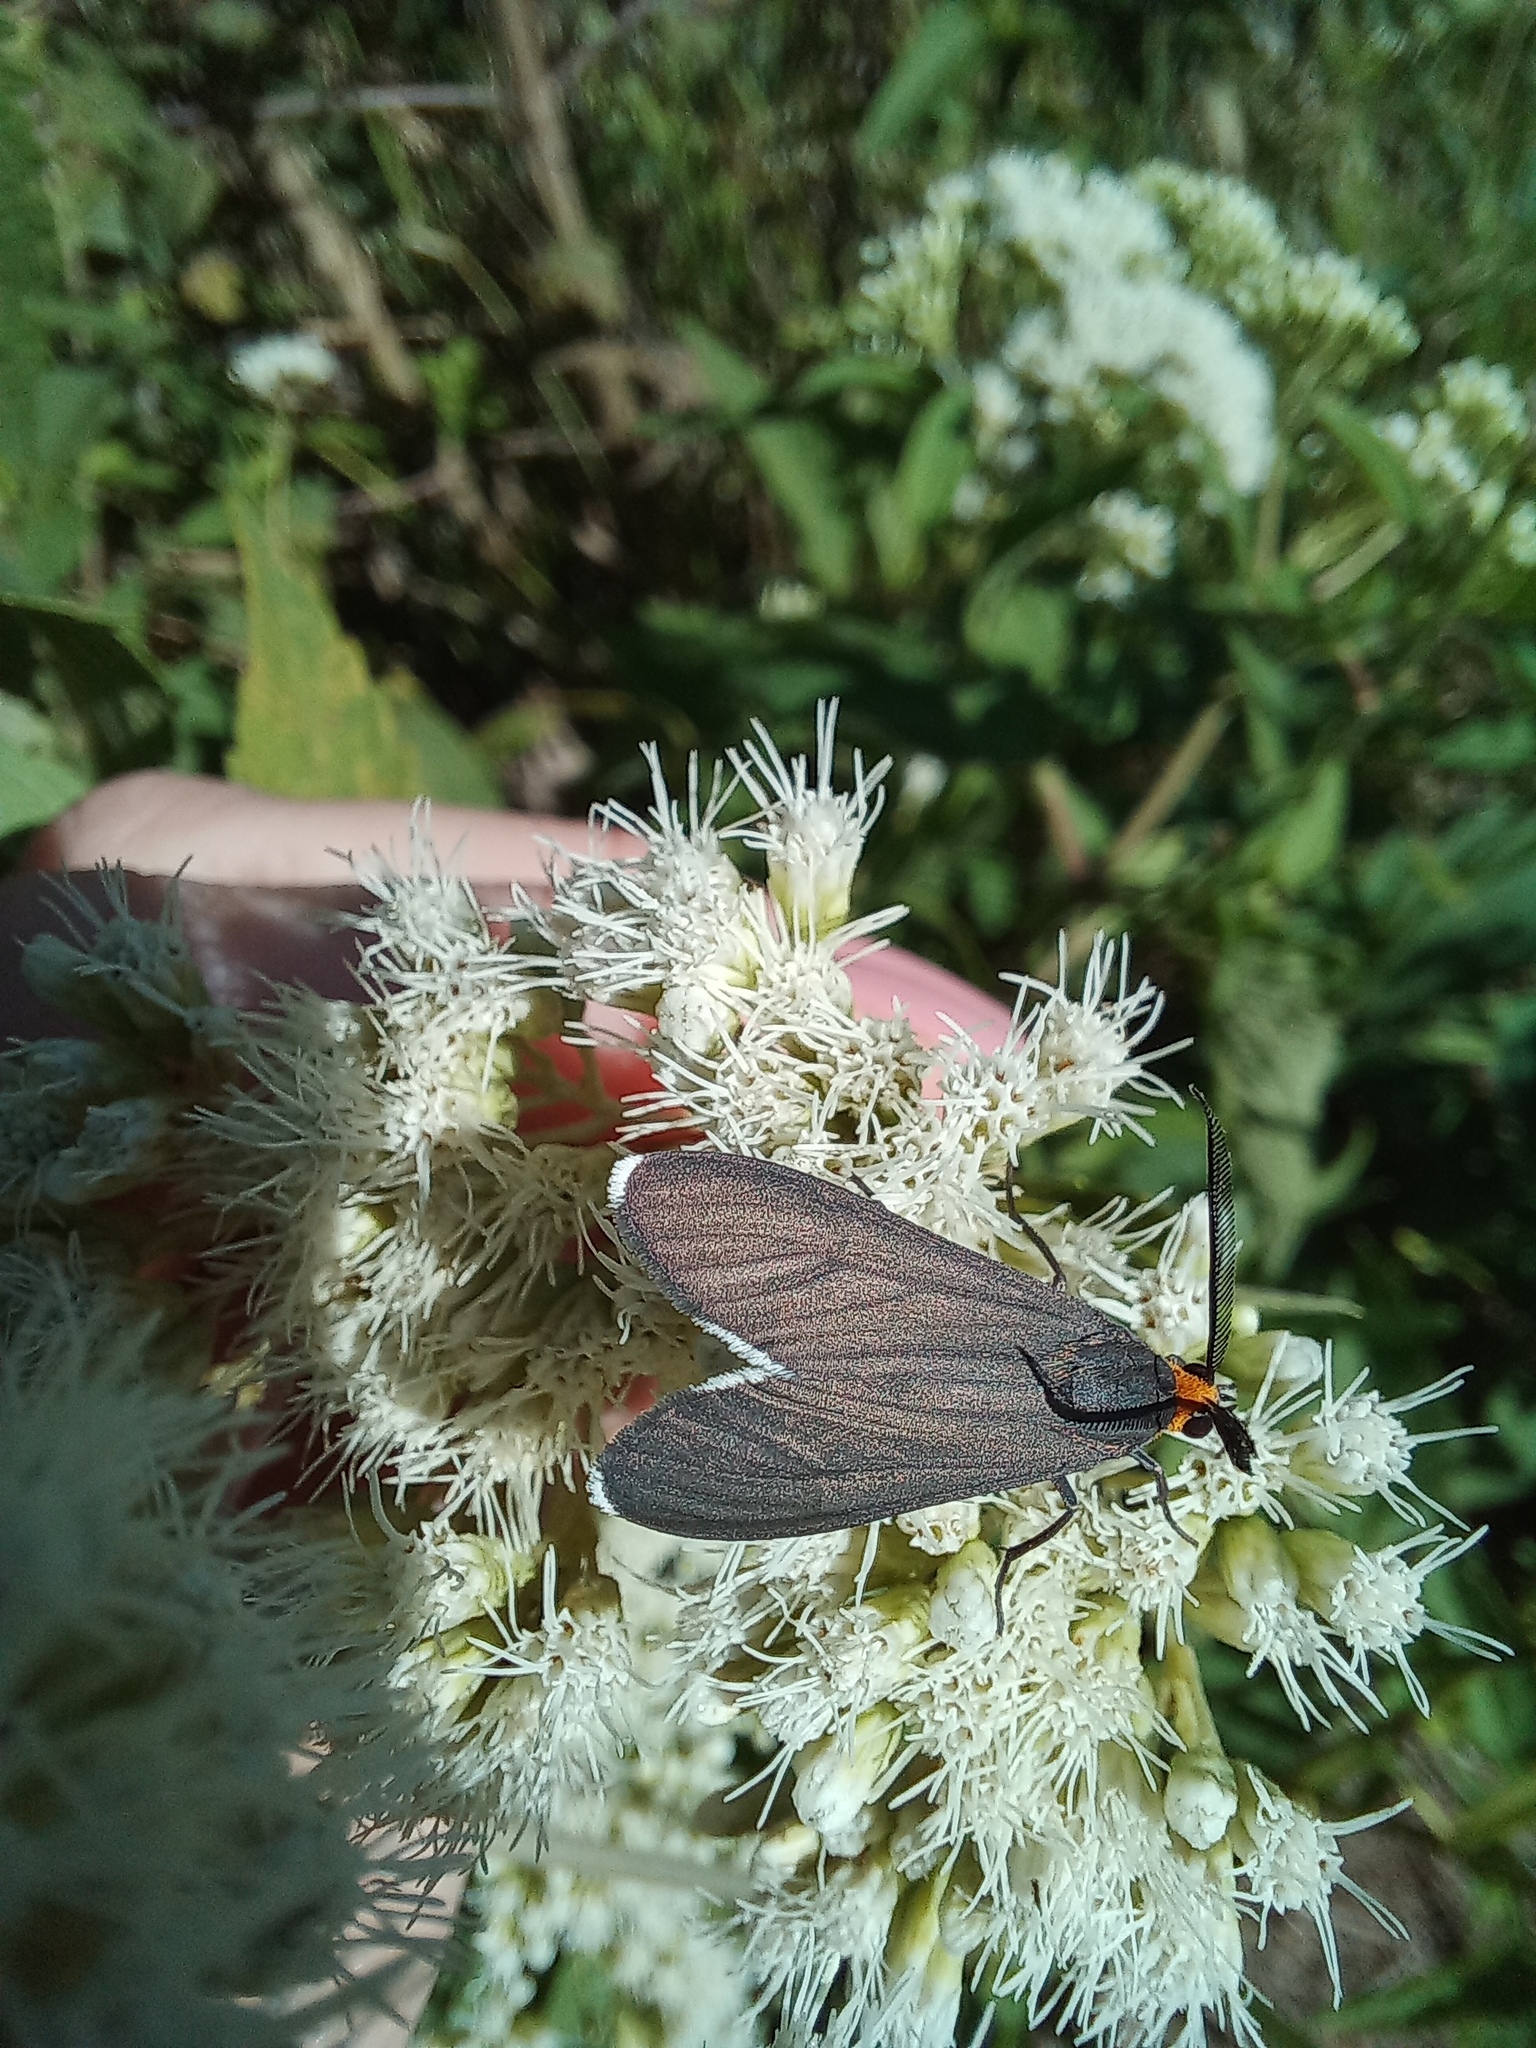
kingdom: Animalia
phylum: Arthropoda
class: Insecta
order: Lepidoptera
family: Erebidae
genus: Ctenucha
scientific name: Ctenucha rubriceps
